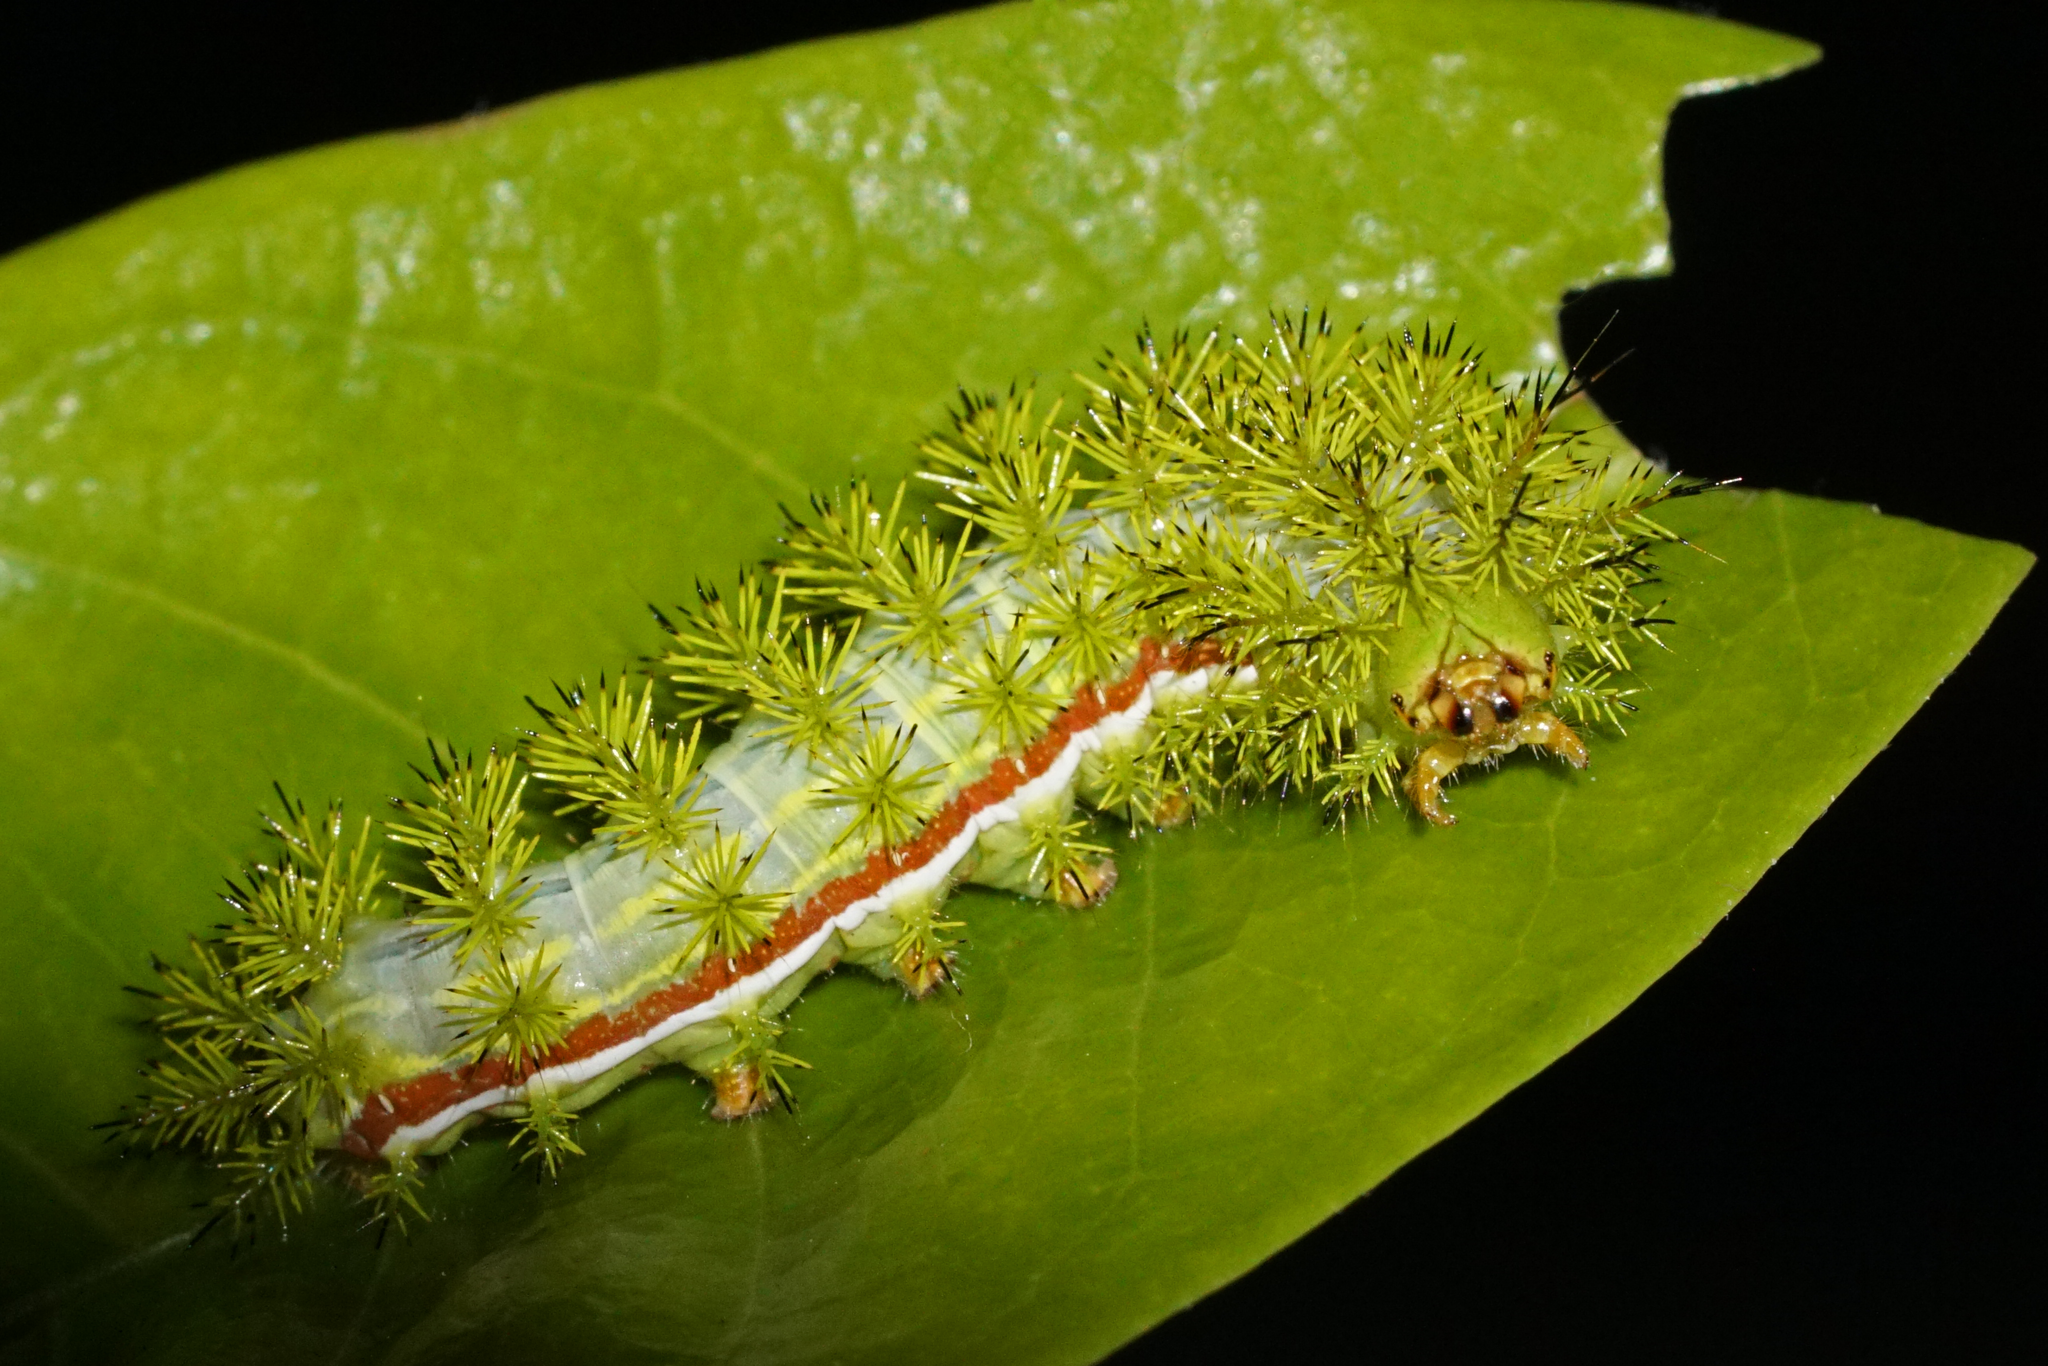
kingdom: Animalia
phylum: Arthropoda
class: Insecta
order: Lepidoptera
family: Saturniidae
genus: Automeris
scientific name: Automeris io
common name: Io moth
